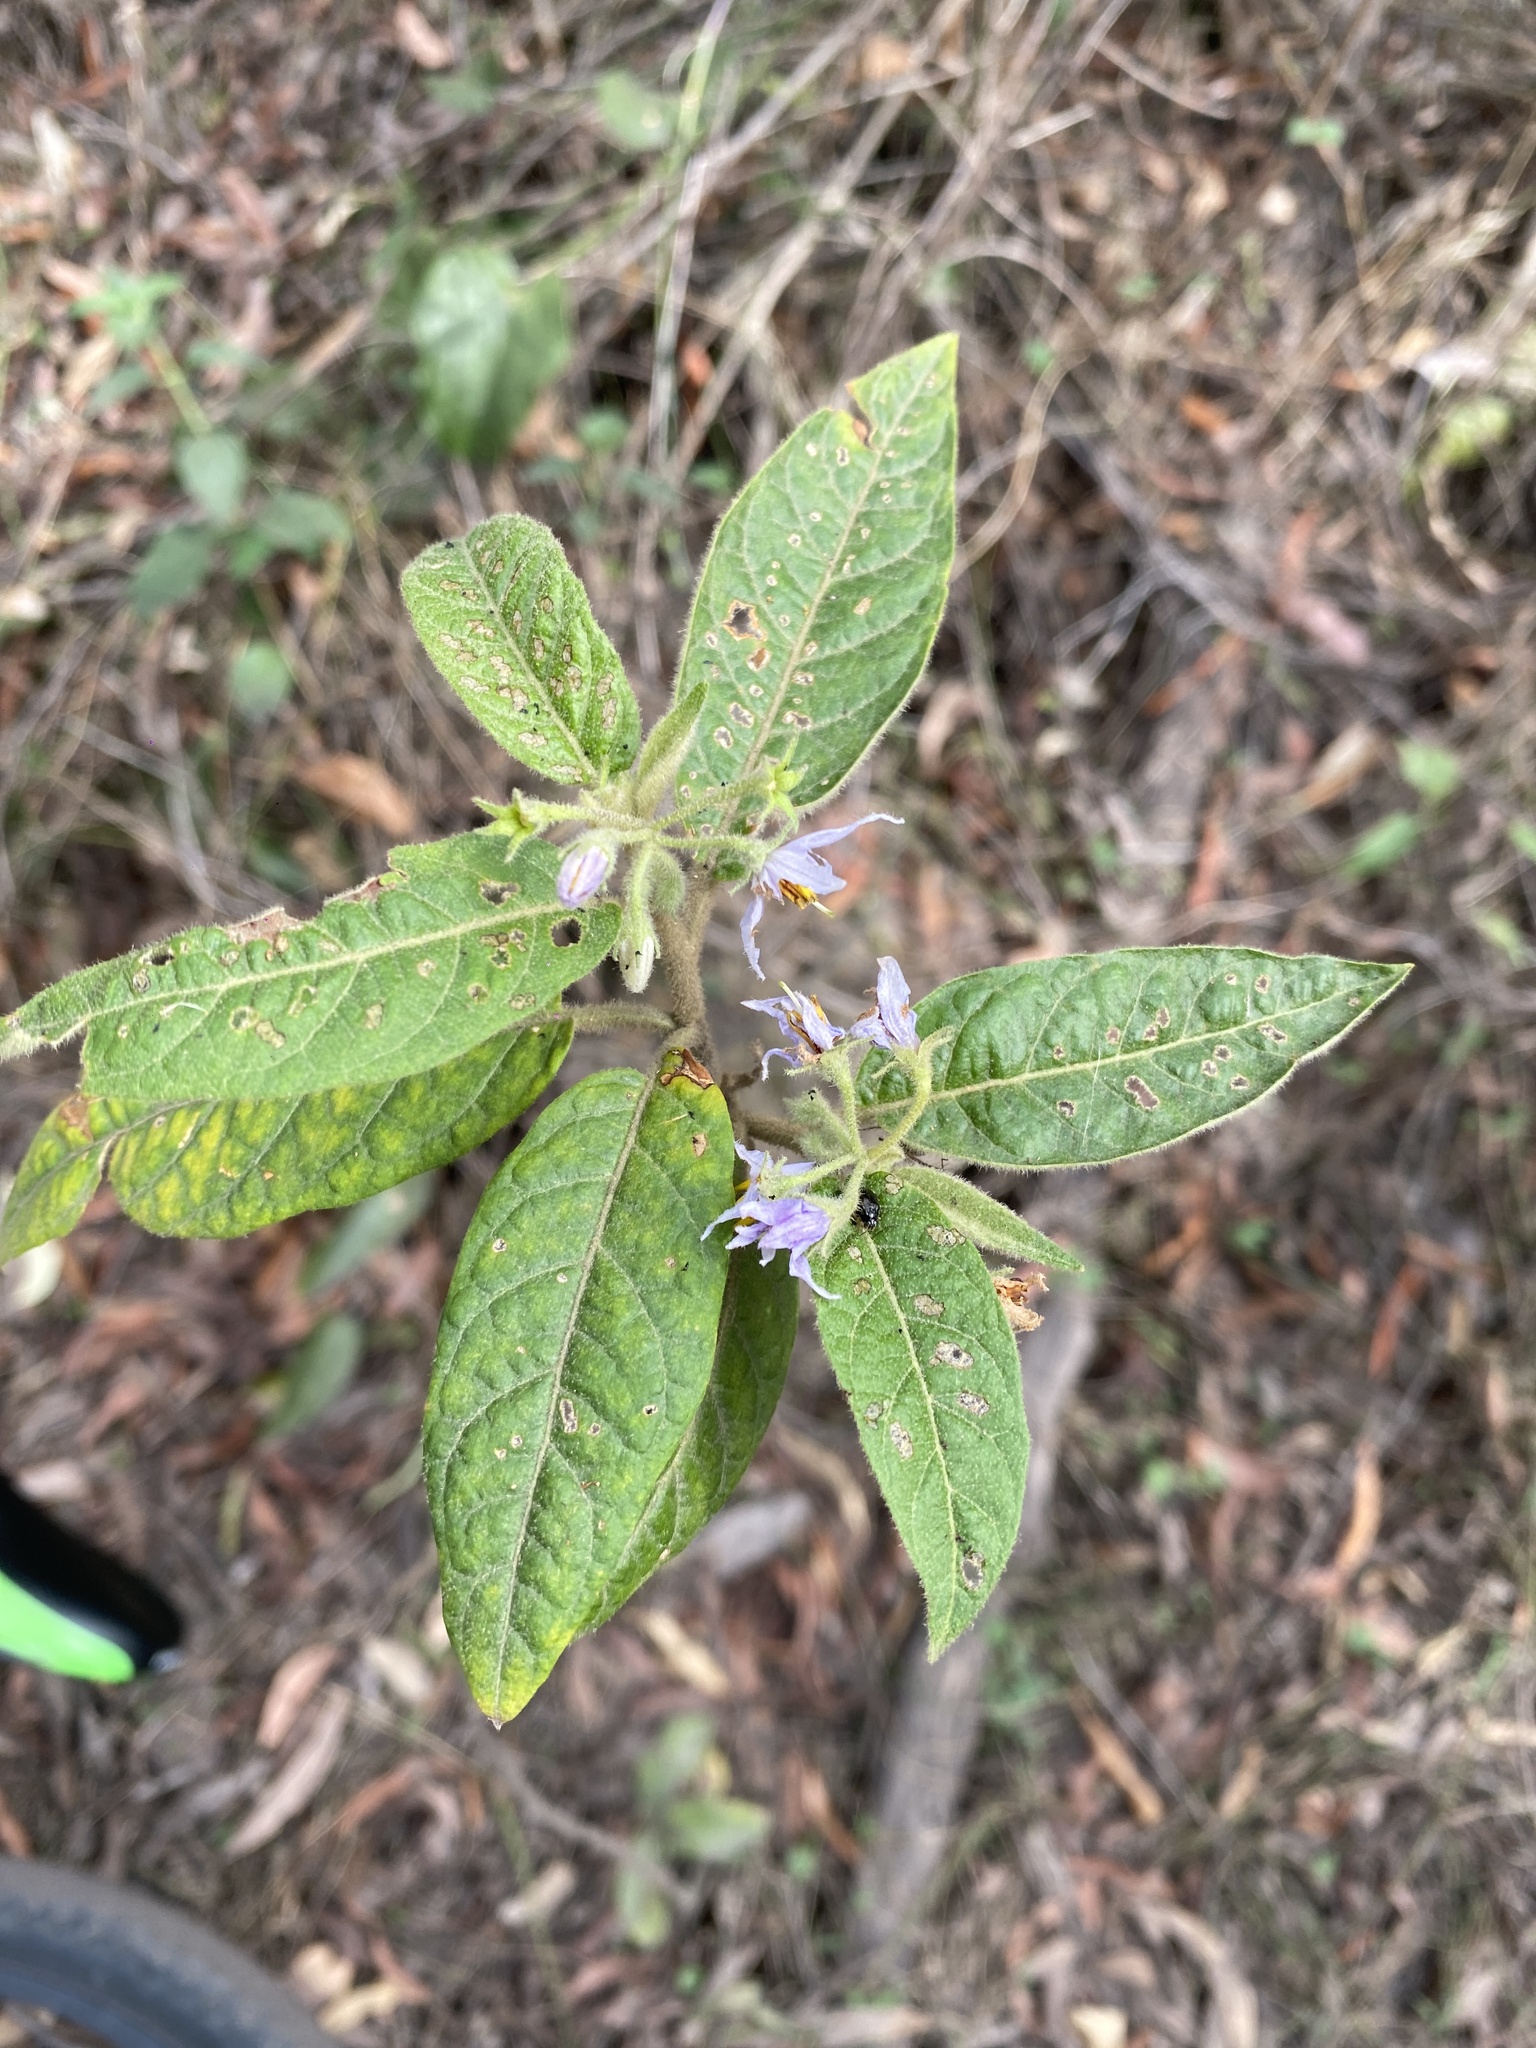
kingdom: Plantae
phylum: Tracheophyta
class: Magnoliopsida
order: Solanales
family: Solanaceae
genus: Solanum
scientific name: Solanum stelligerum
